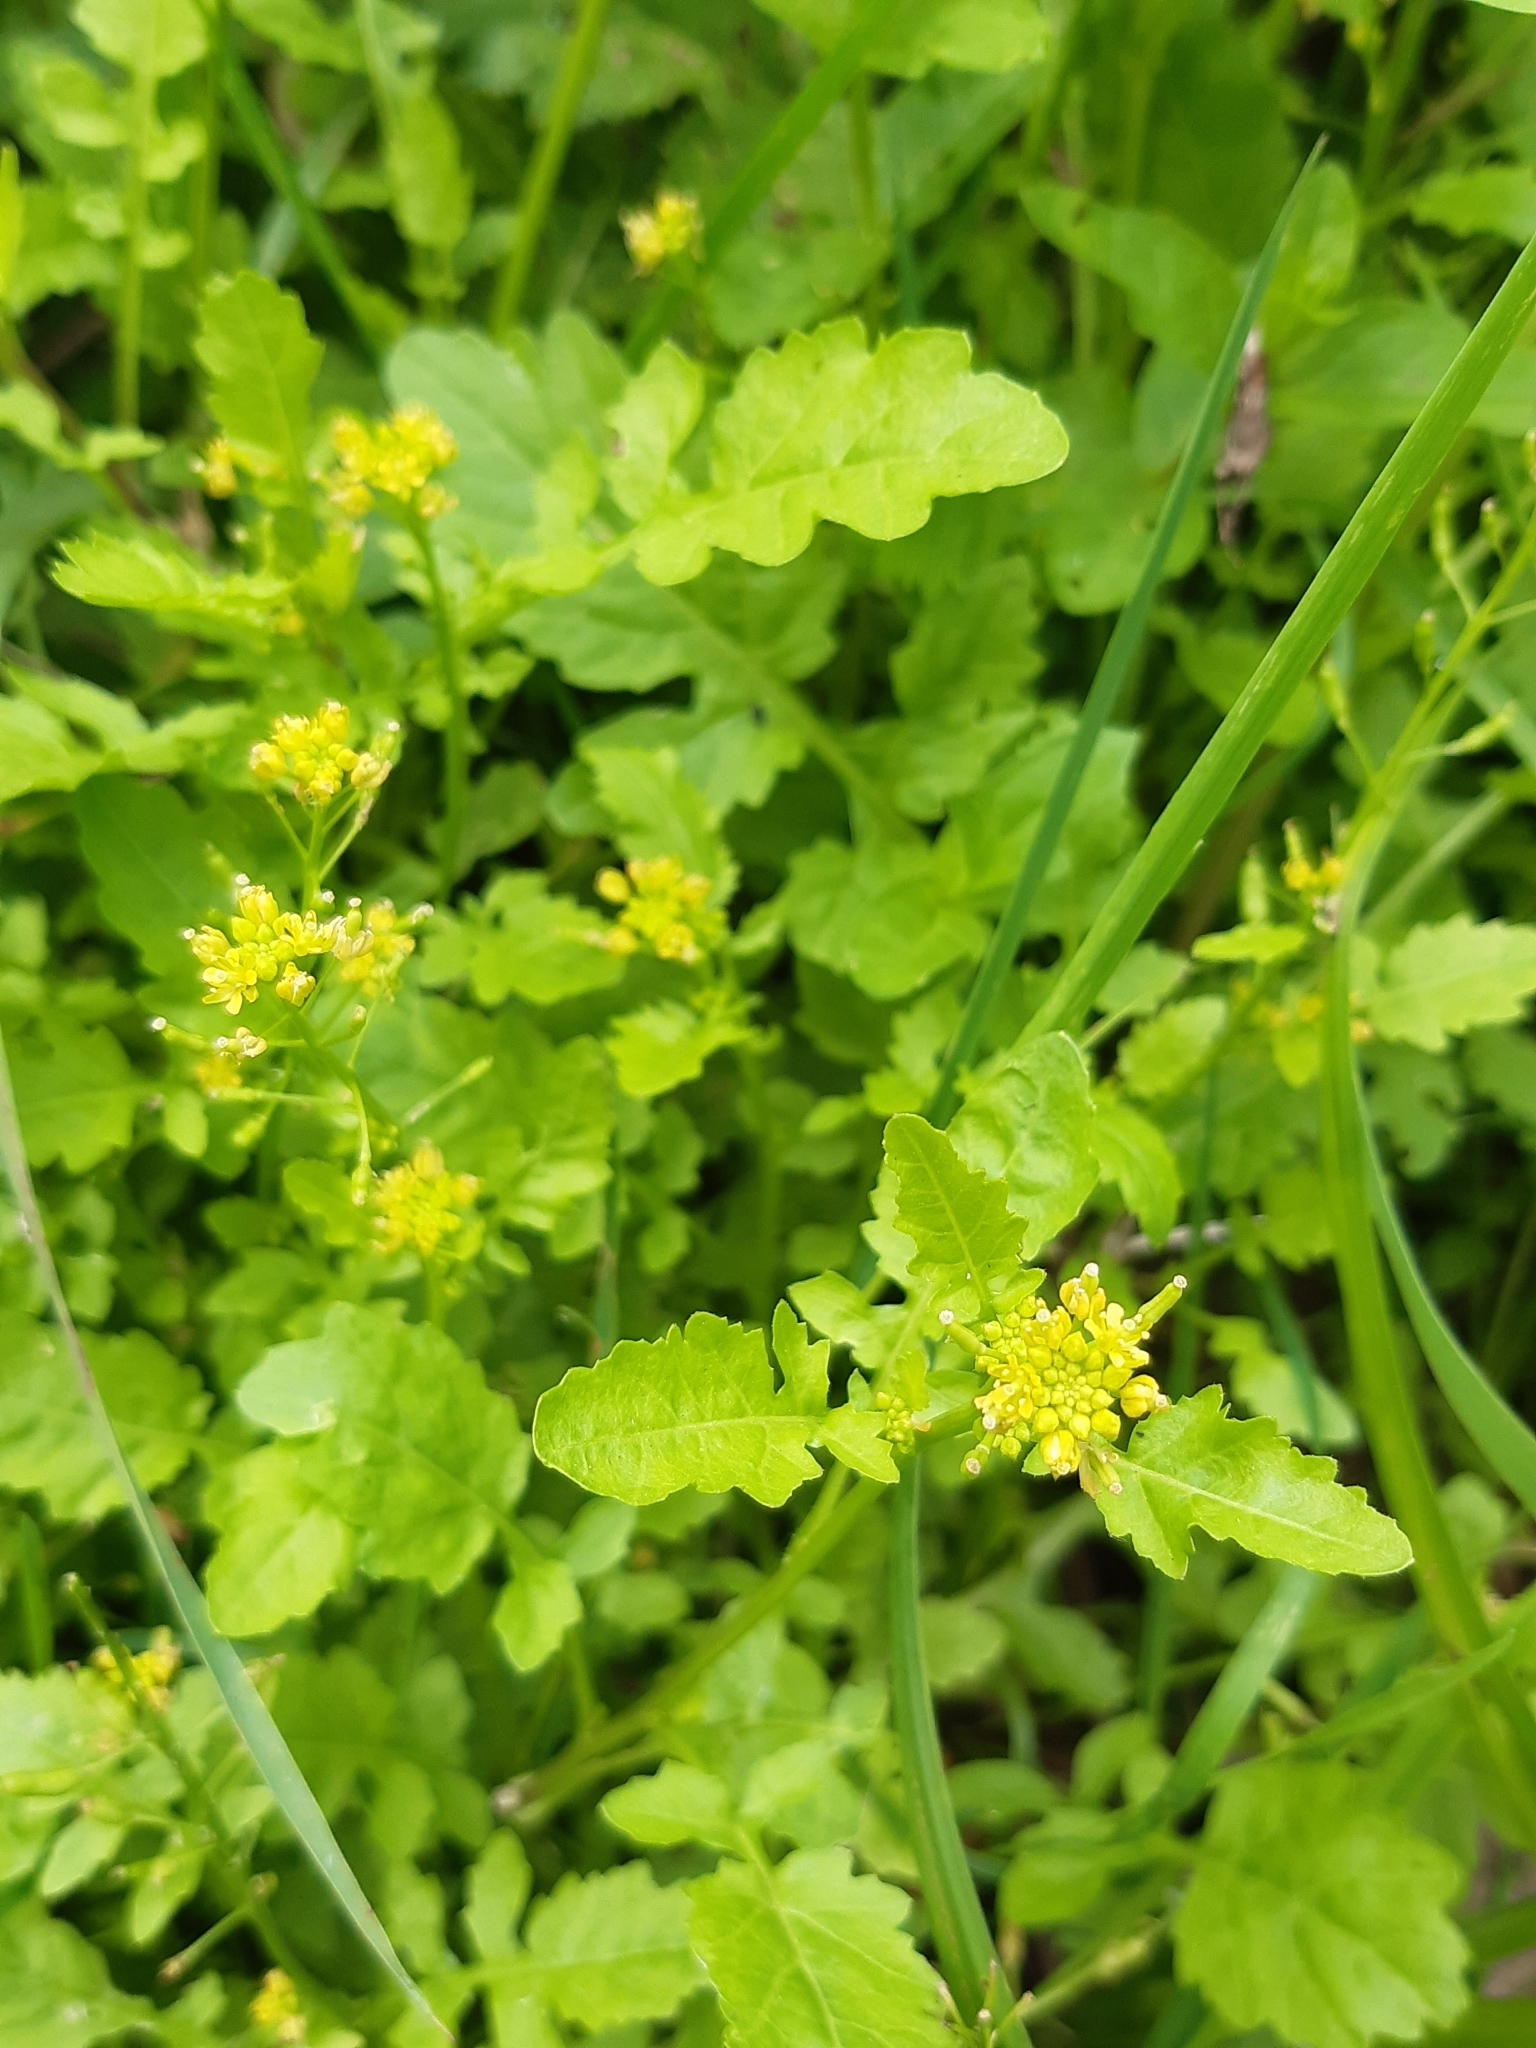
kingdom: Plantae
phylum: Tracheophyta
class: Magnoliopsida
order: Brassicales
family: Brassicaceae
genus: Rorippa
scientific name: Rorippa palustris
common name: Marsh yellow-cress
